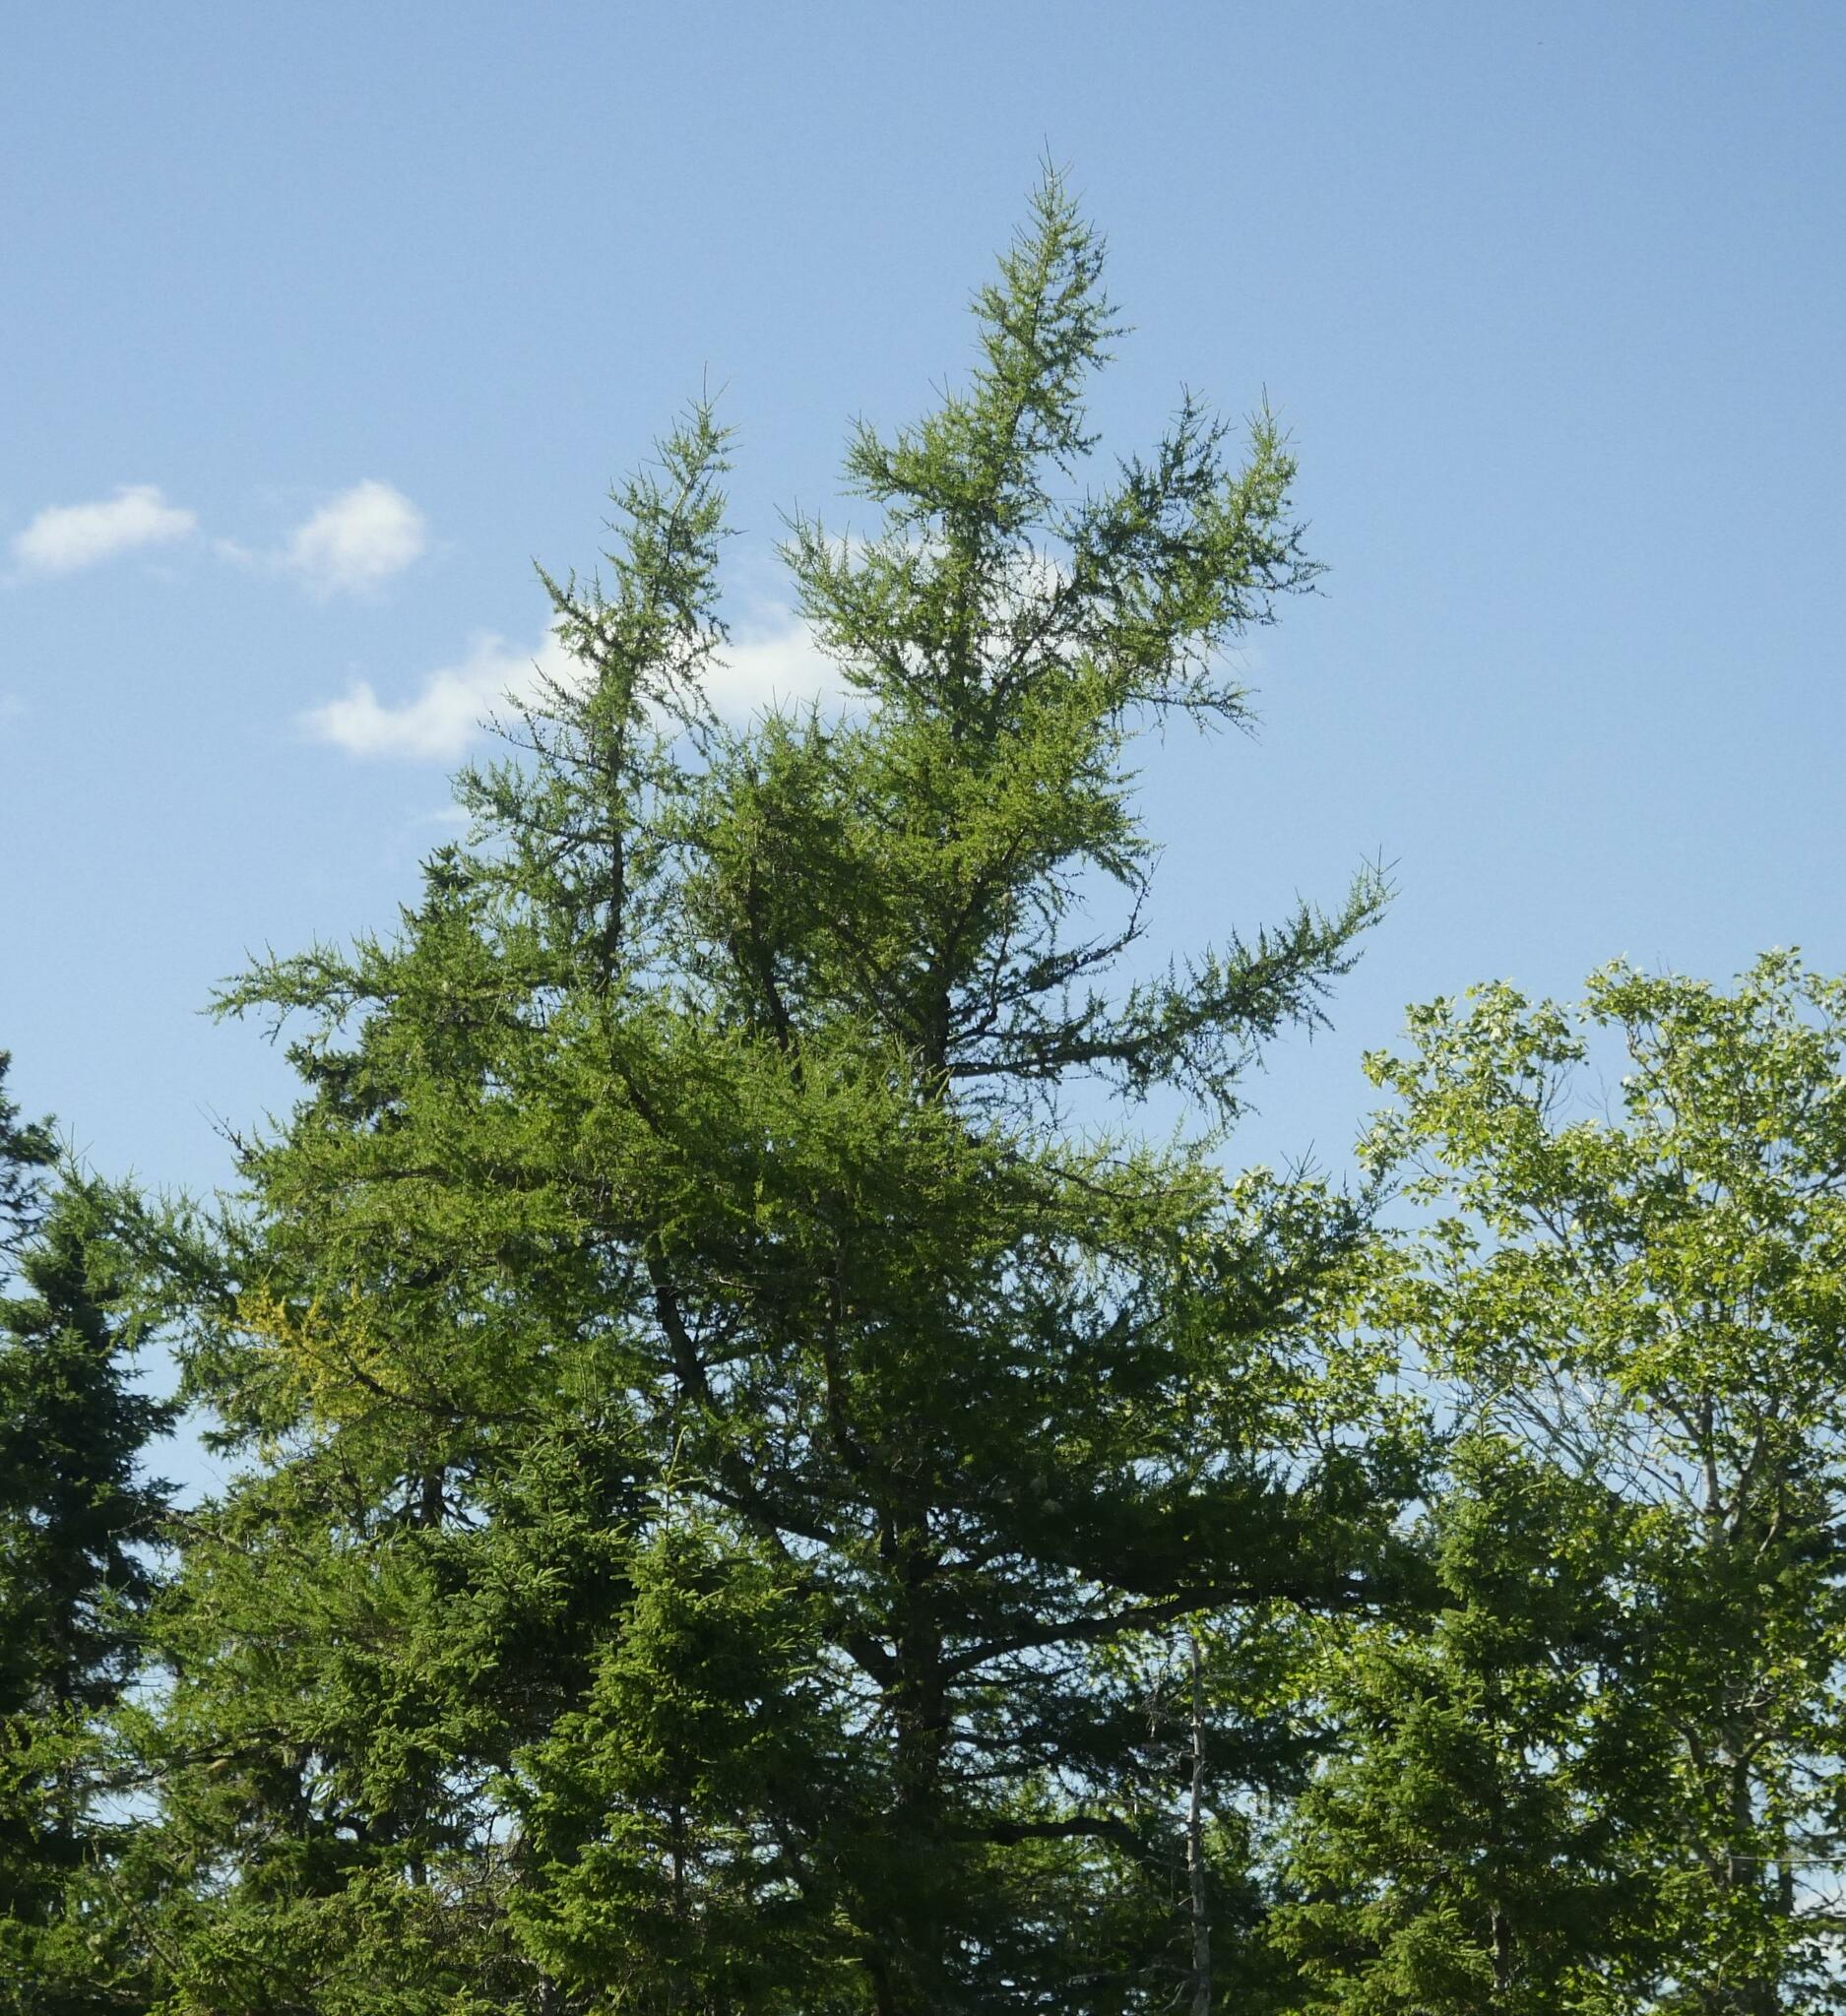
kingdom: Plantae
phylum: Tracheophyta
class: Pinopsida
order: Pinales
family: Pinaceae
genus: Larix
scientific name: Larix laricina
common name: American larch
